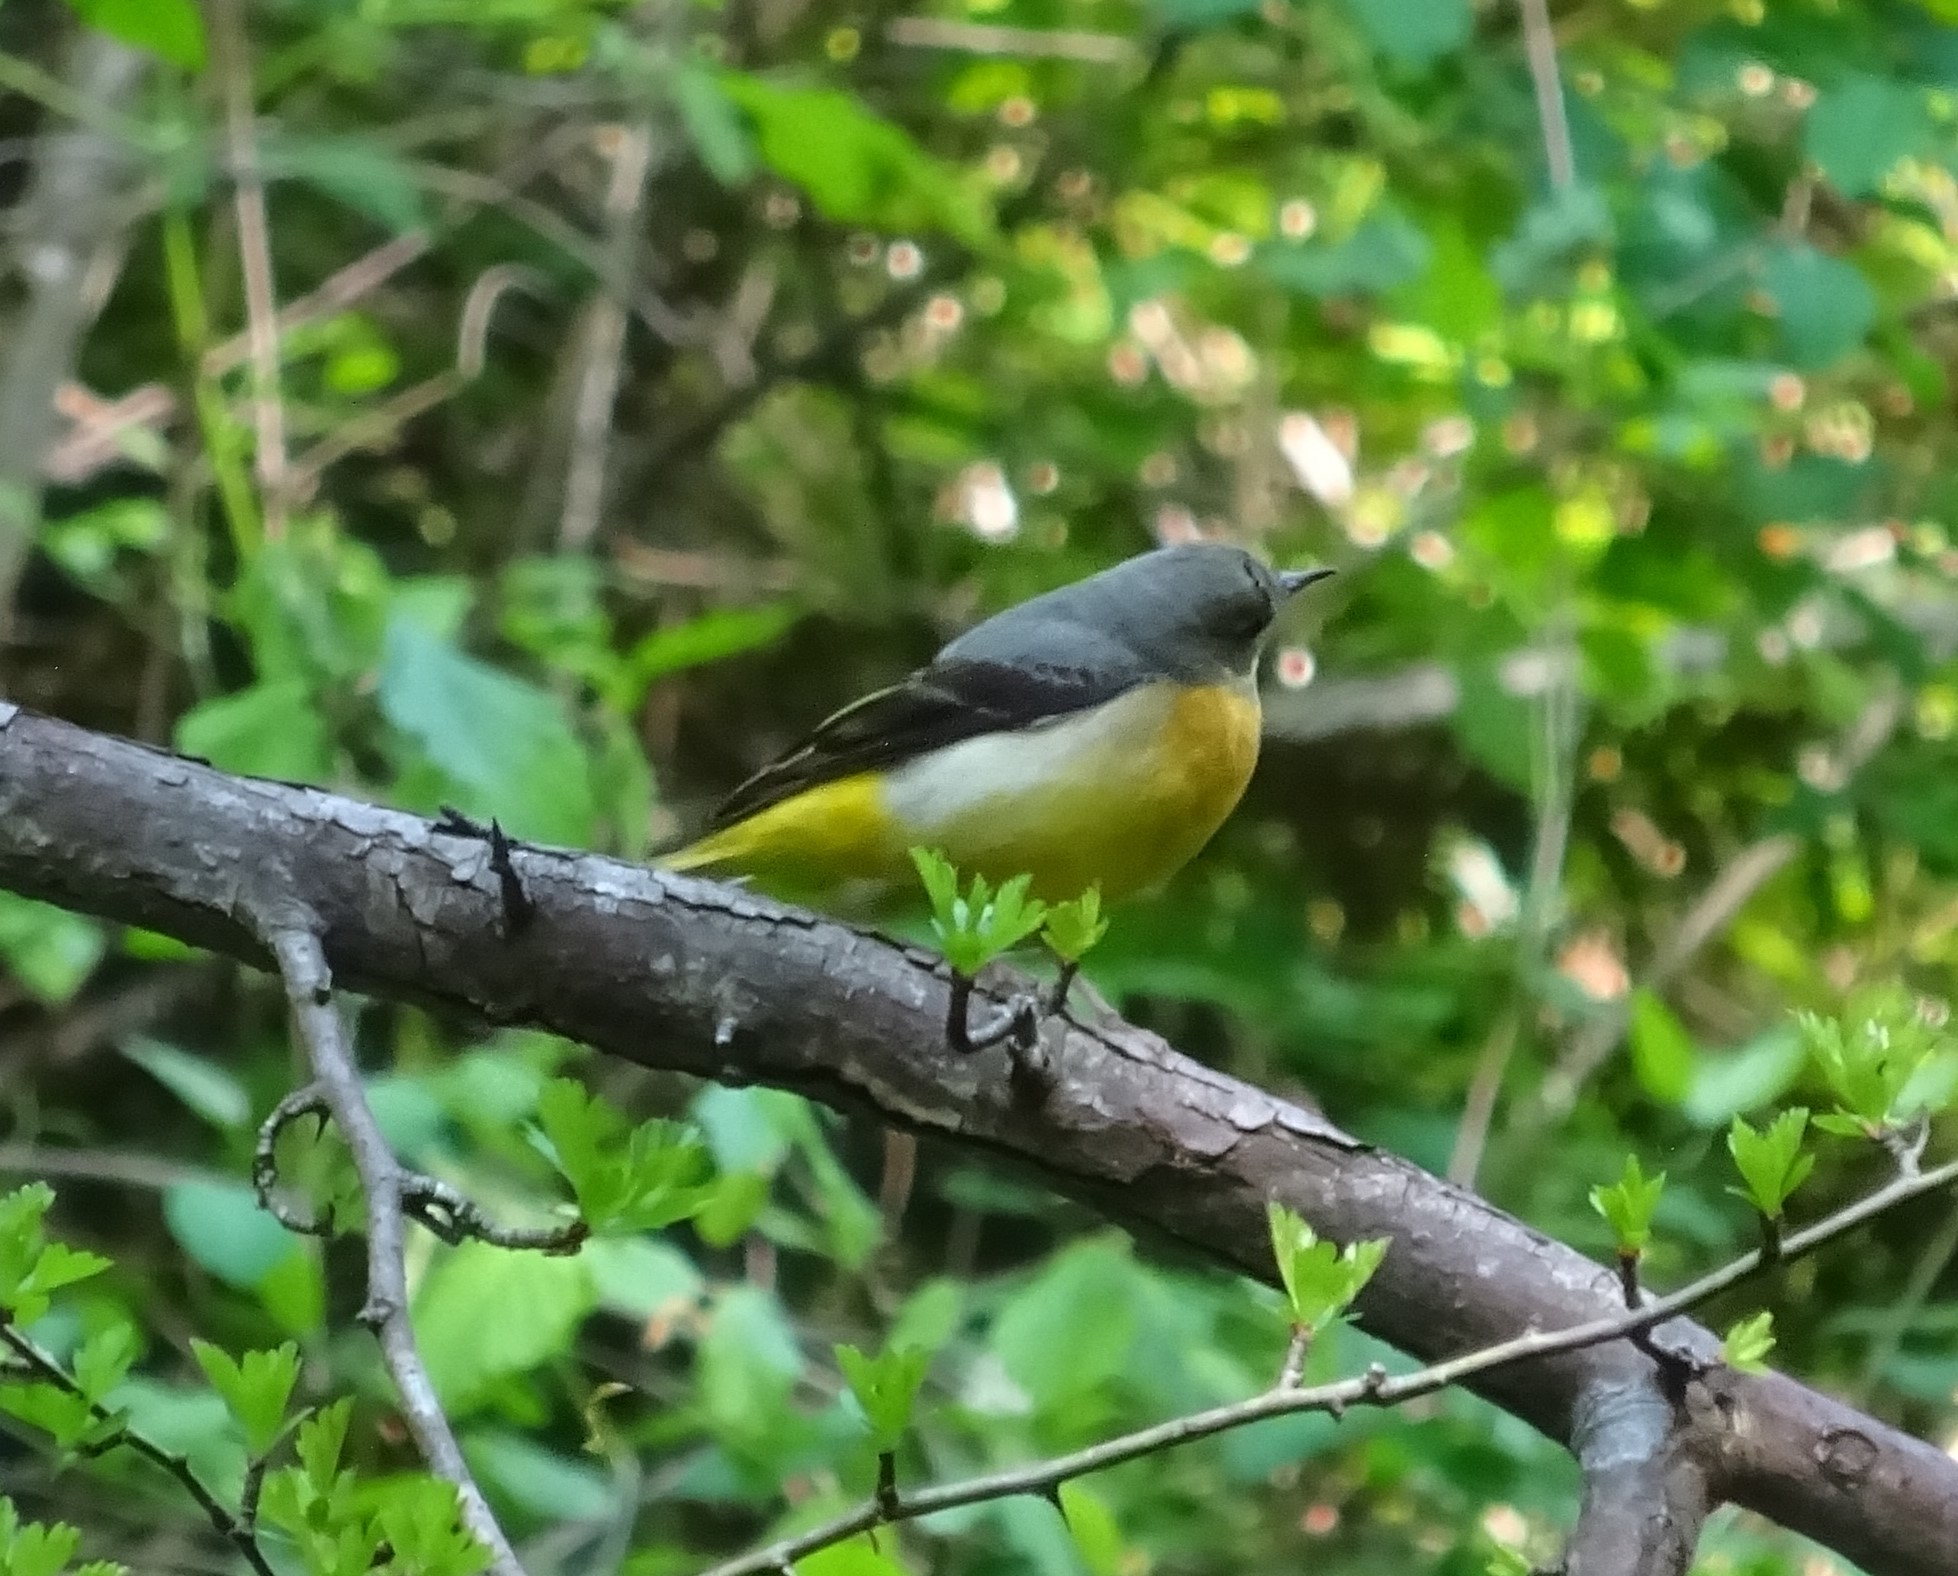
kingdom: Animalia
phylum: Chordata
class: Aves
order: Passeriformes
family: Motacillidae
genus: Motacilla
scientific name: Motacilla cinerea
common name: Grey wagtail
